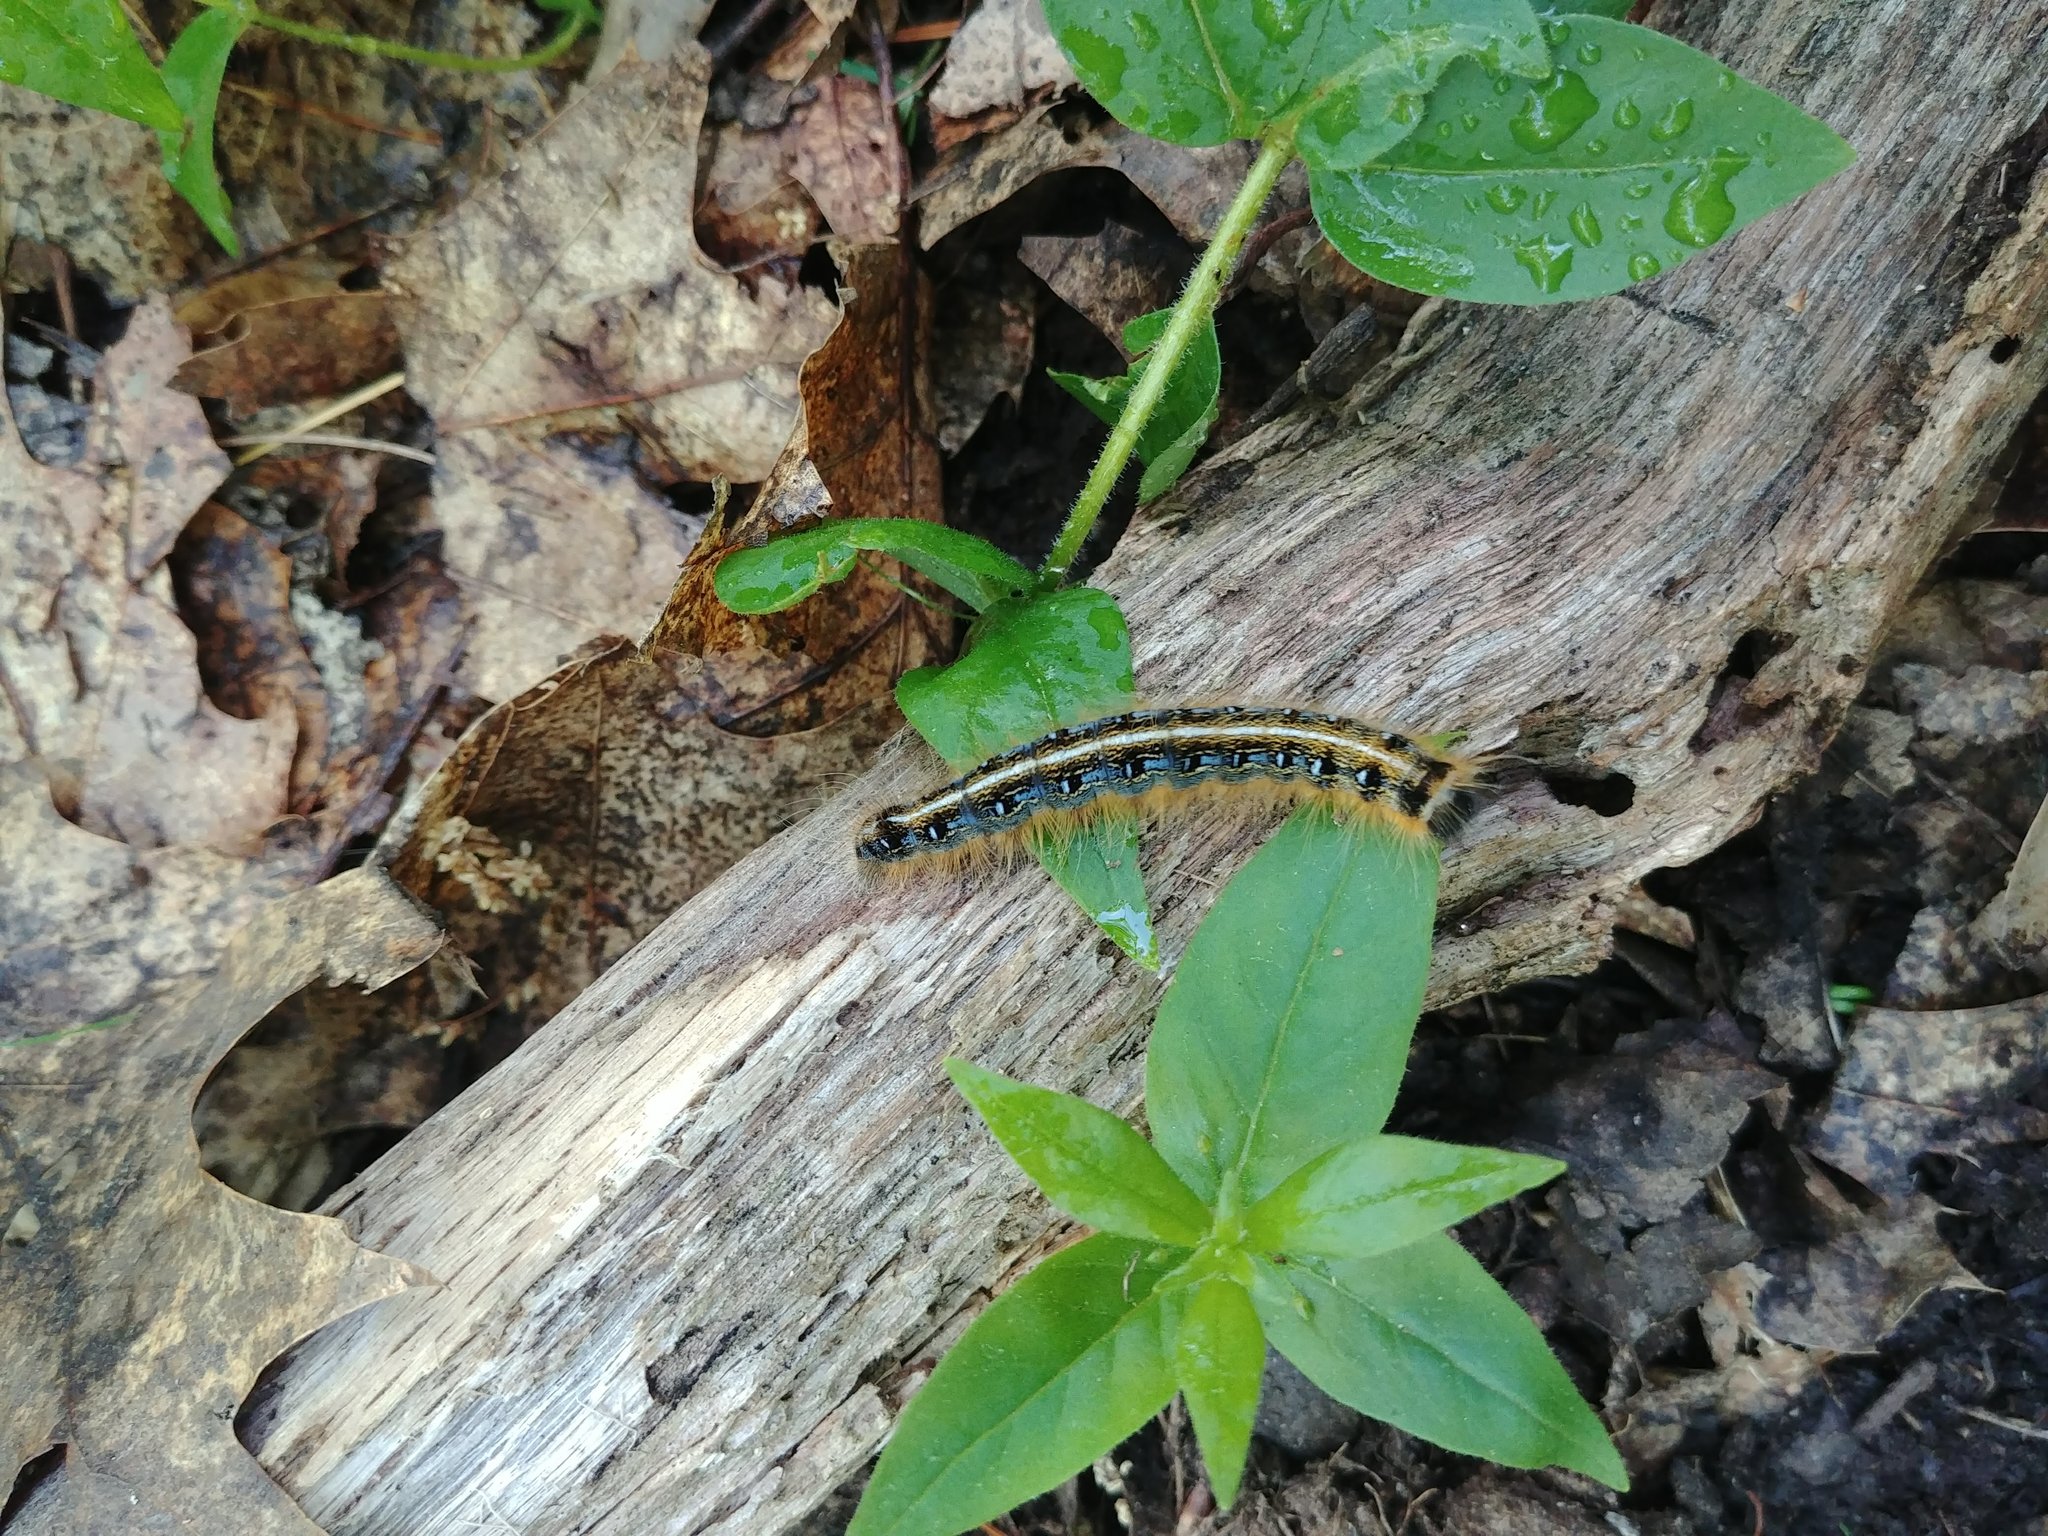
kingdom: Animalia
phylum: Arthropoda
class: Insecta
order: Lepidoptera
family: Lasiocampidae
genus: Malacosoma
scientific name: Malacosoma americana
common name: Eastern tent caterpillar moth
